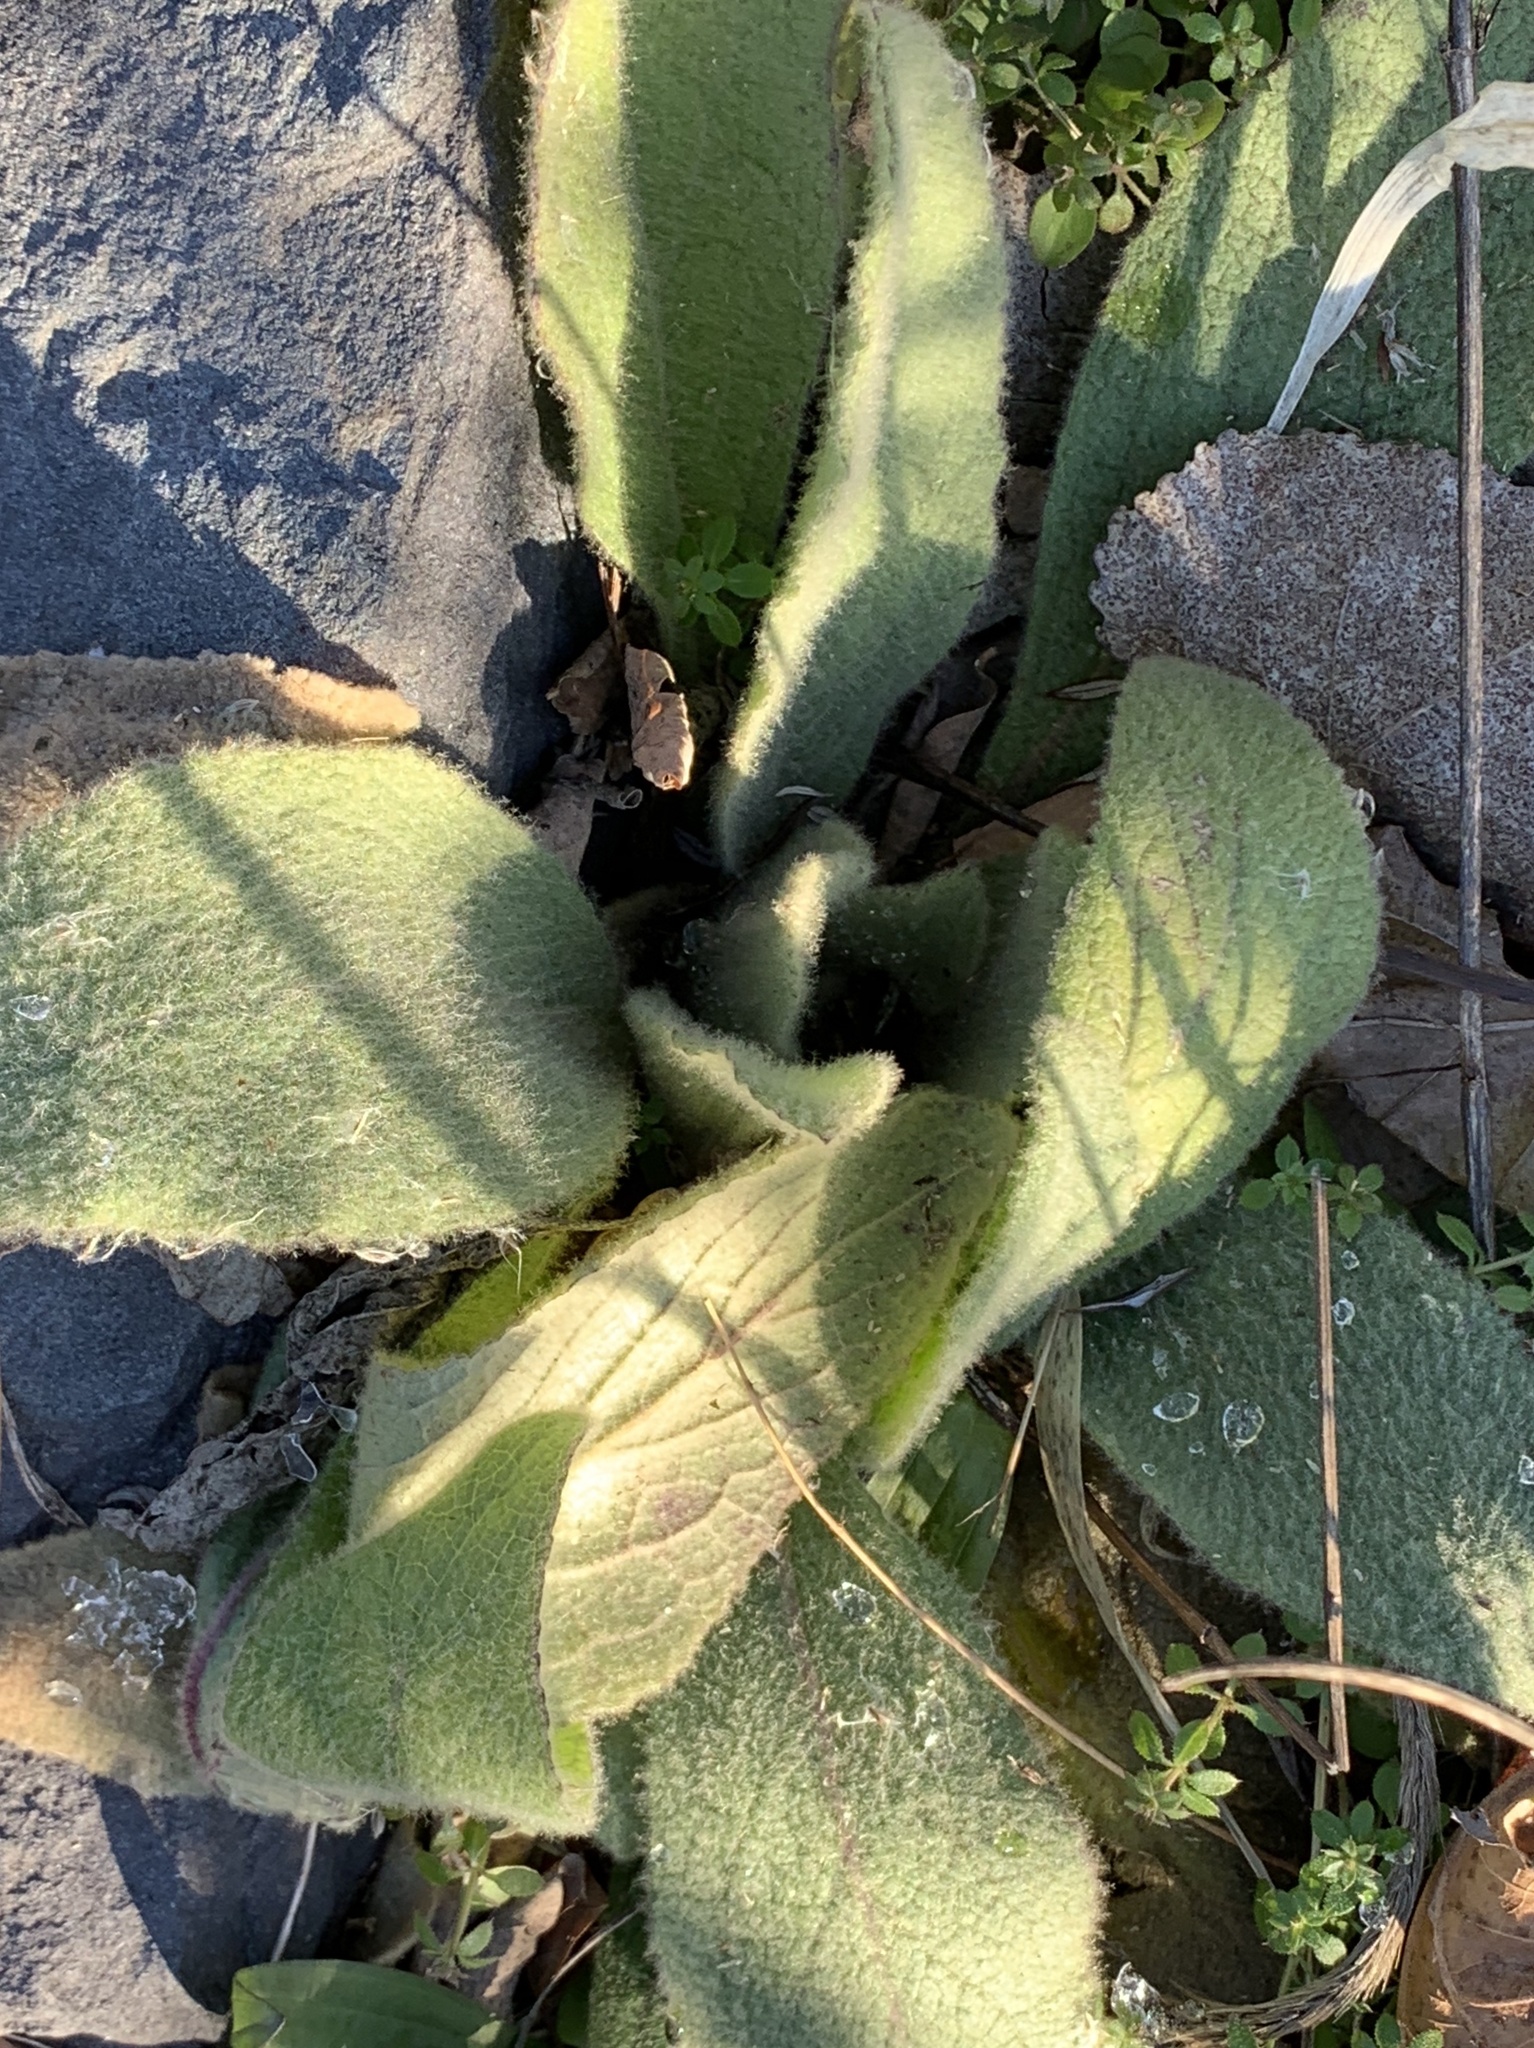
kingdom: Plantae
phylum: Tracheophyta
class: Magnoliopsida
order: Lamiales
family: Scrophulariaceae
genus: Verbascum
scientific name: Verbascum thapsus
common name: Common mullein
